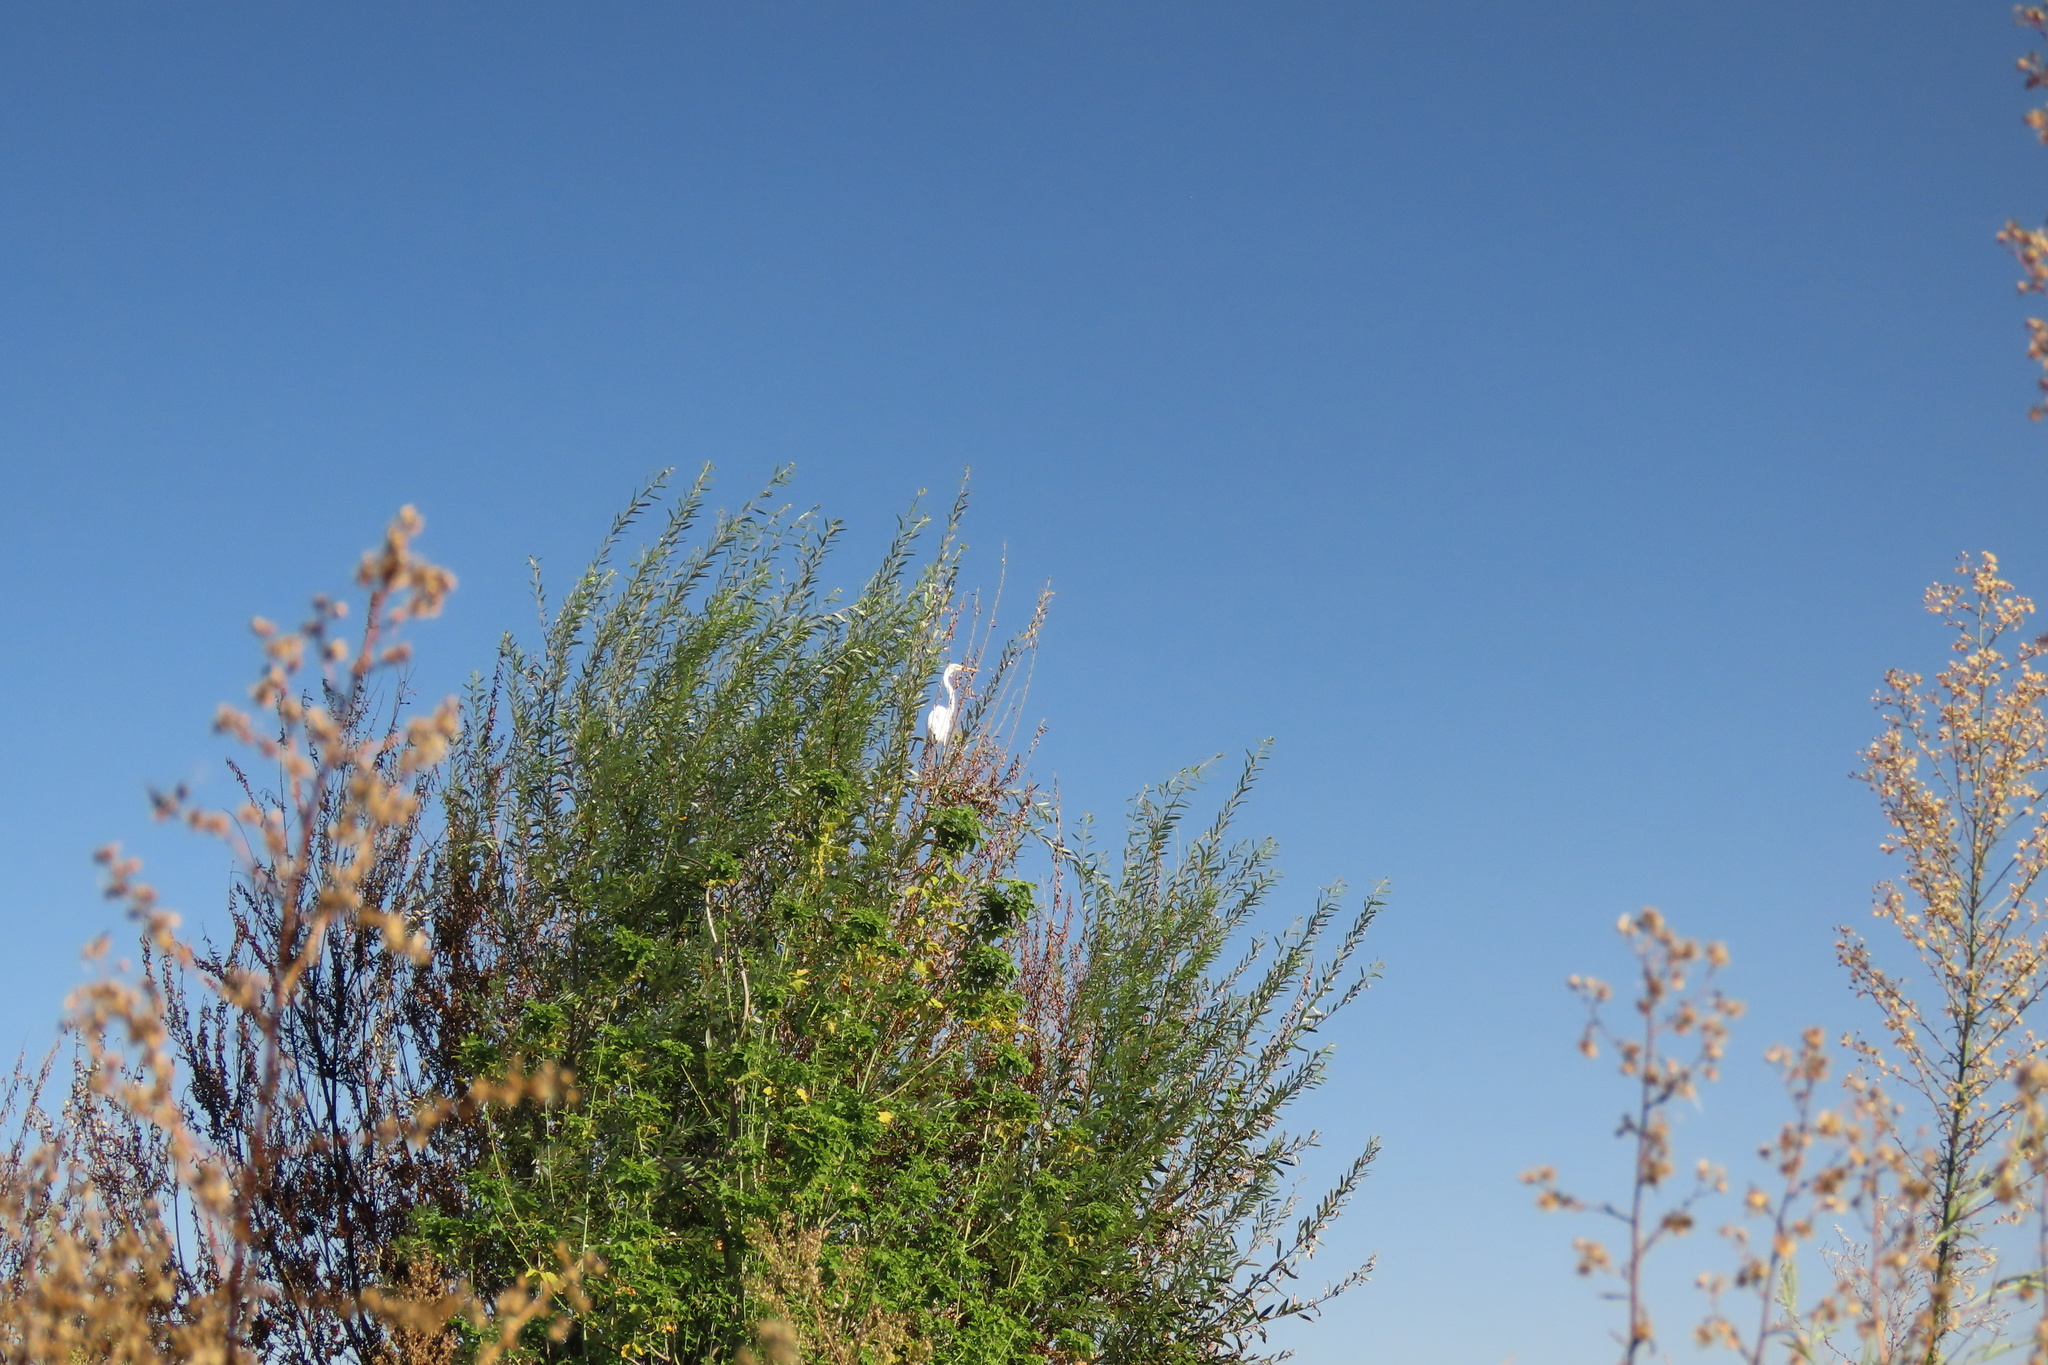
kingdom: Animalia
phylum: Chordata
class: Aves
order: Pelecaniformes
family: Ardeidae
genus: Ardea
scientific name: Ardea alba
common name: Great egret
